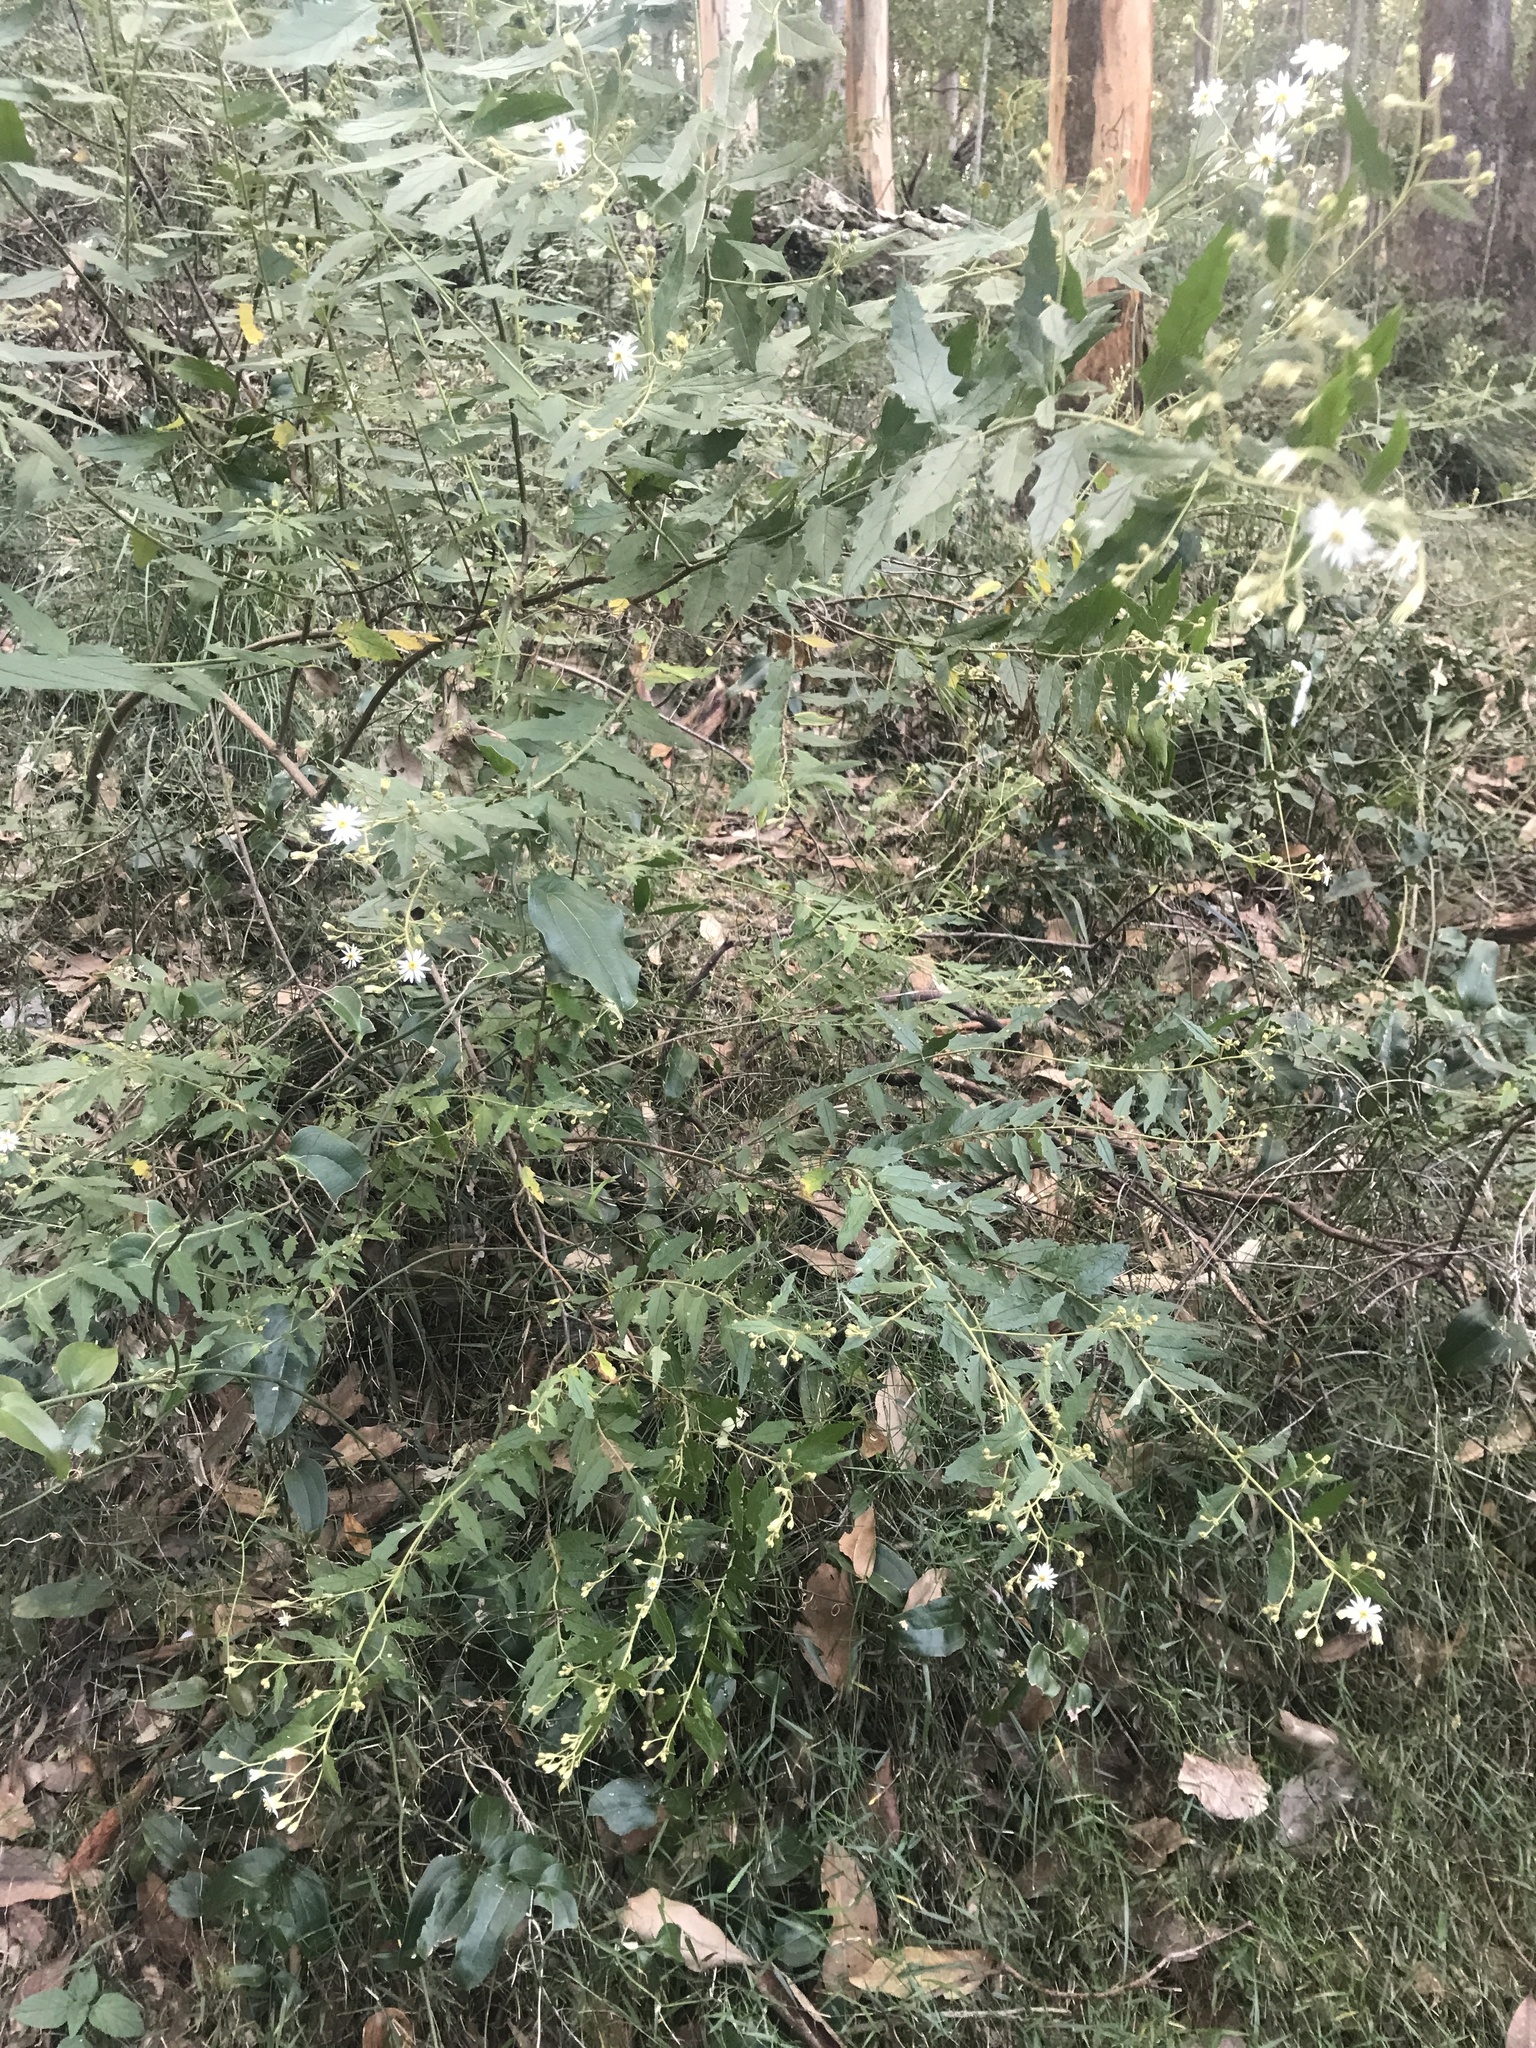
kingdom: Plantae
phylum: Tracheophyta
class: Magnoliopsida
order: Asterales
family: Asteraceae
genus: Olearia
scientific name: Olearia nernstii
